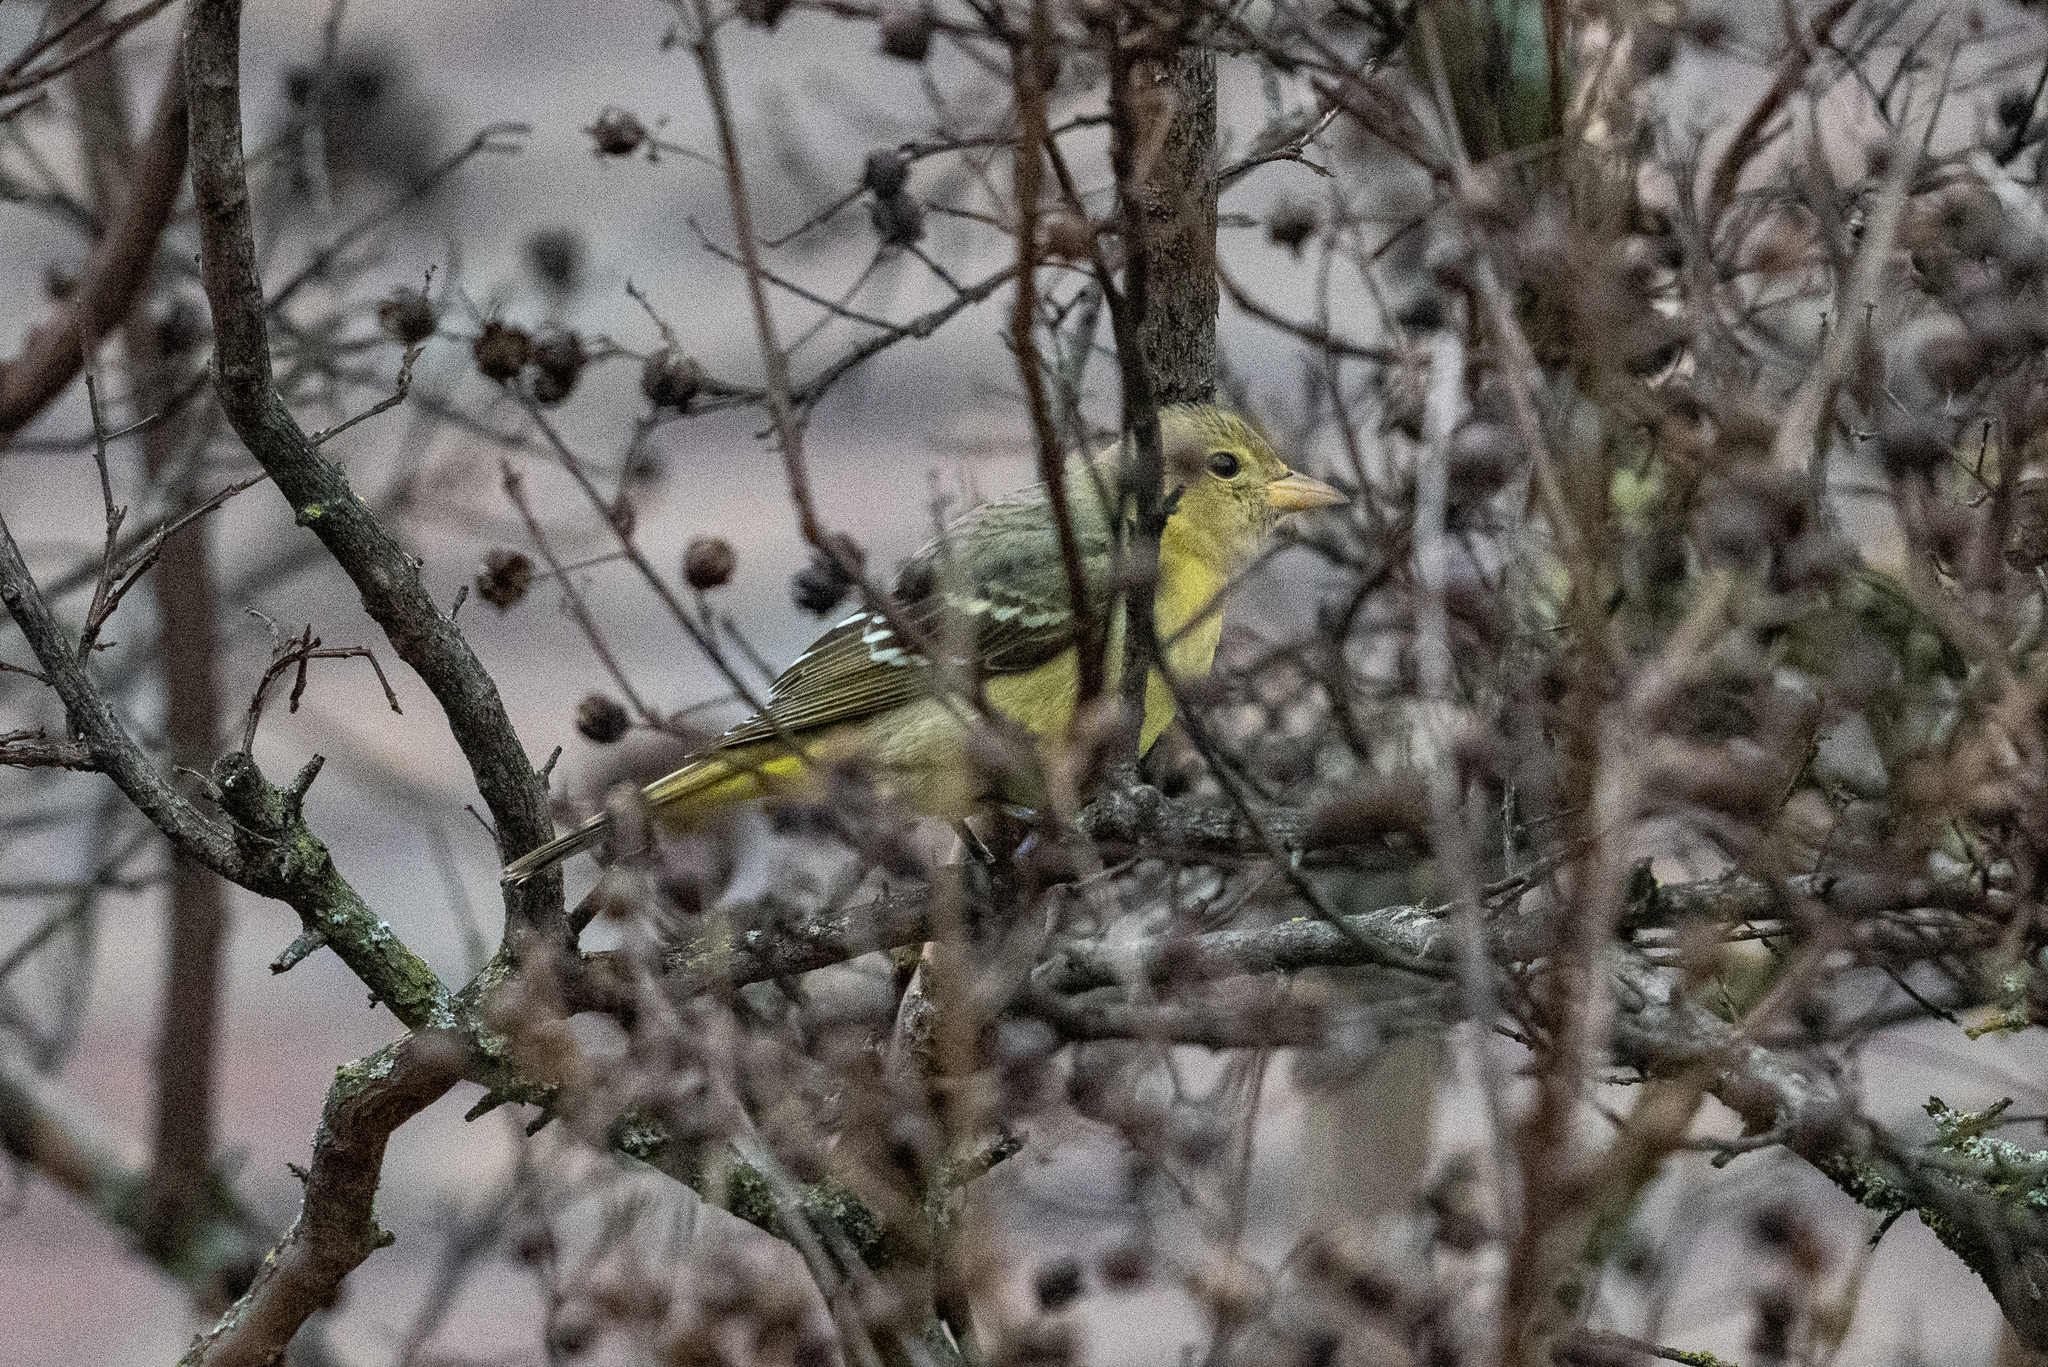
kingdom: Animalia
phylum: Chordata
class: Aves
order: Passeriformes
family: Cardinalidae
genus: Piranga
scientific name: Piranga ludoviciana
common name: Western tanager
